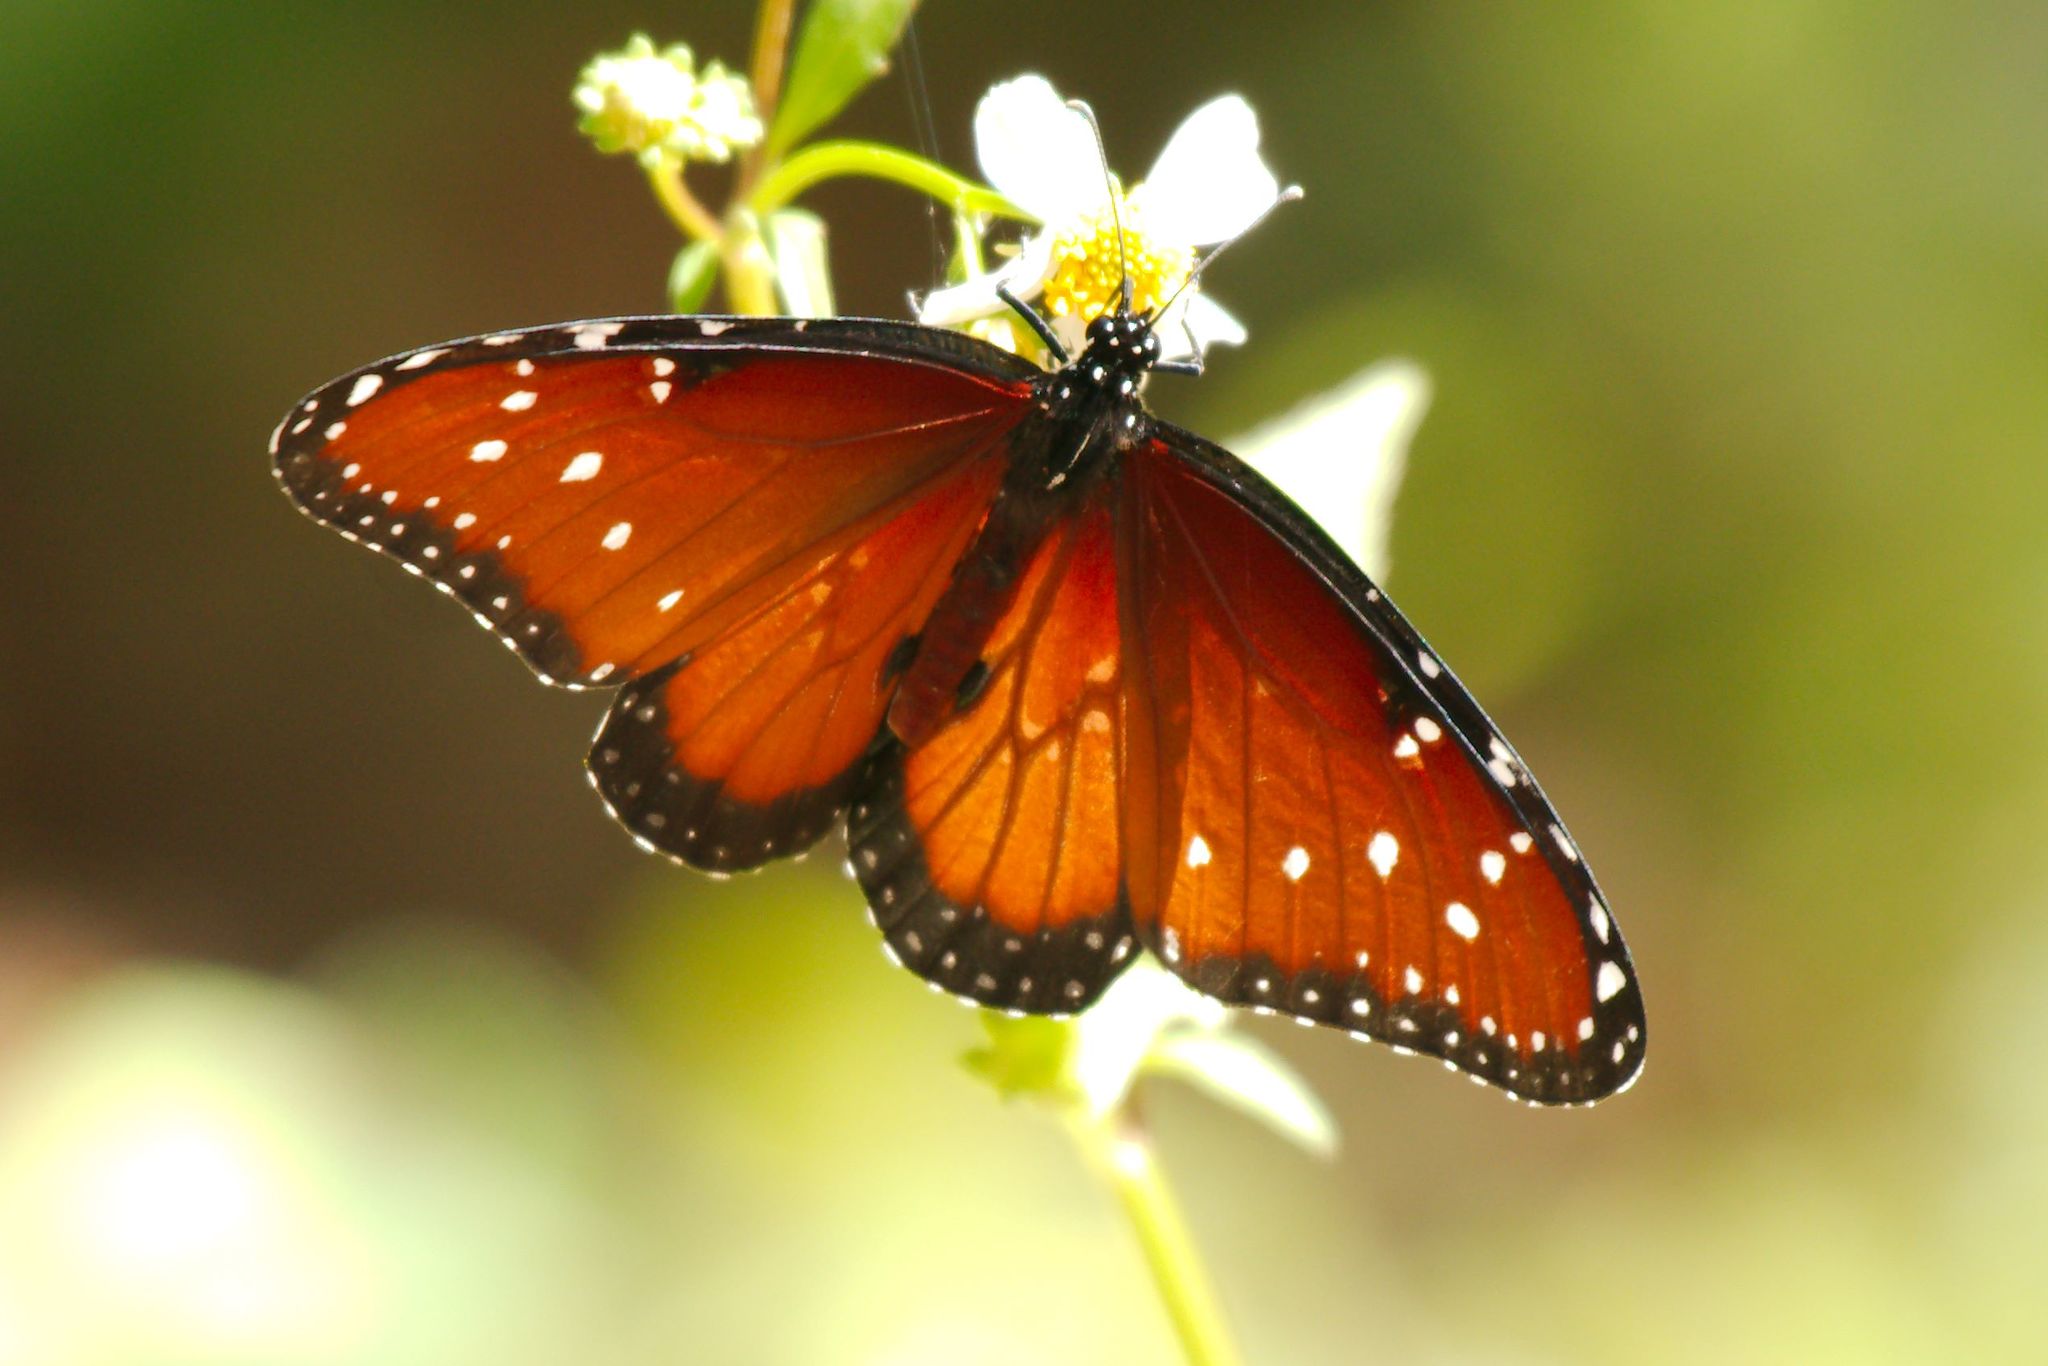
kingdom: Animalia
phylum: Arthropoda
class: Insecta
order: Lepidoptera
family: Nymphalidae
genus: Danaus
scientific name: Danaus gilippus
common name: Queen
